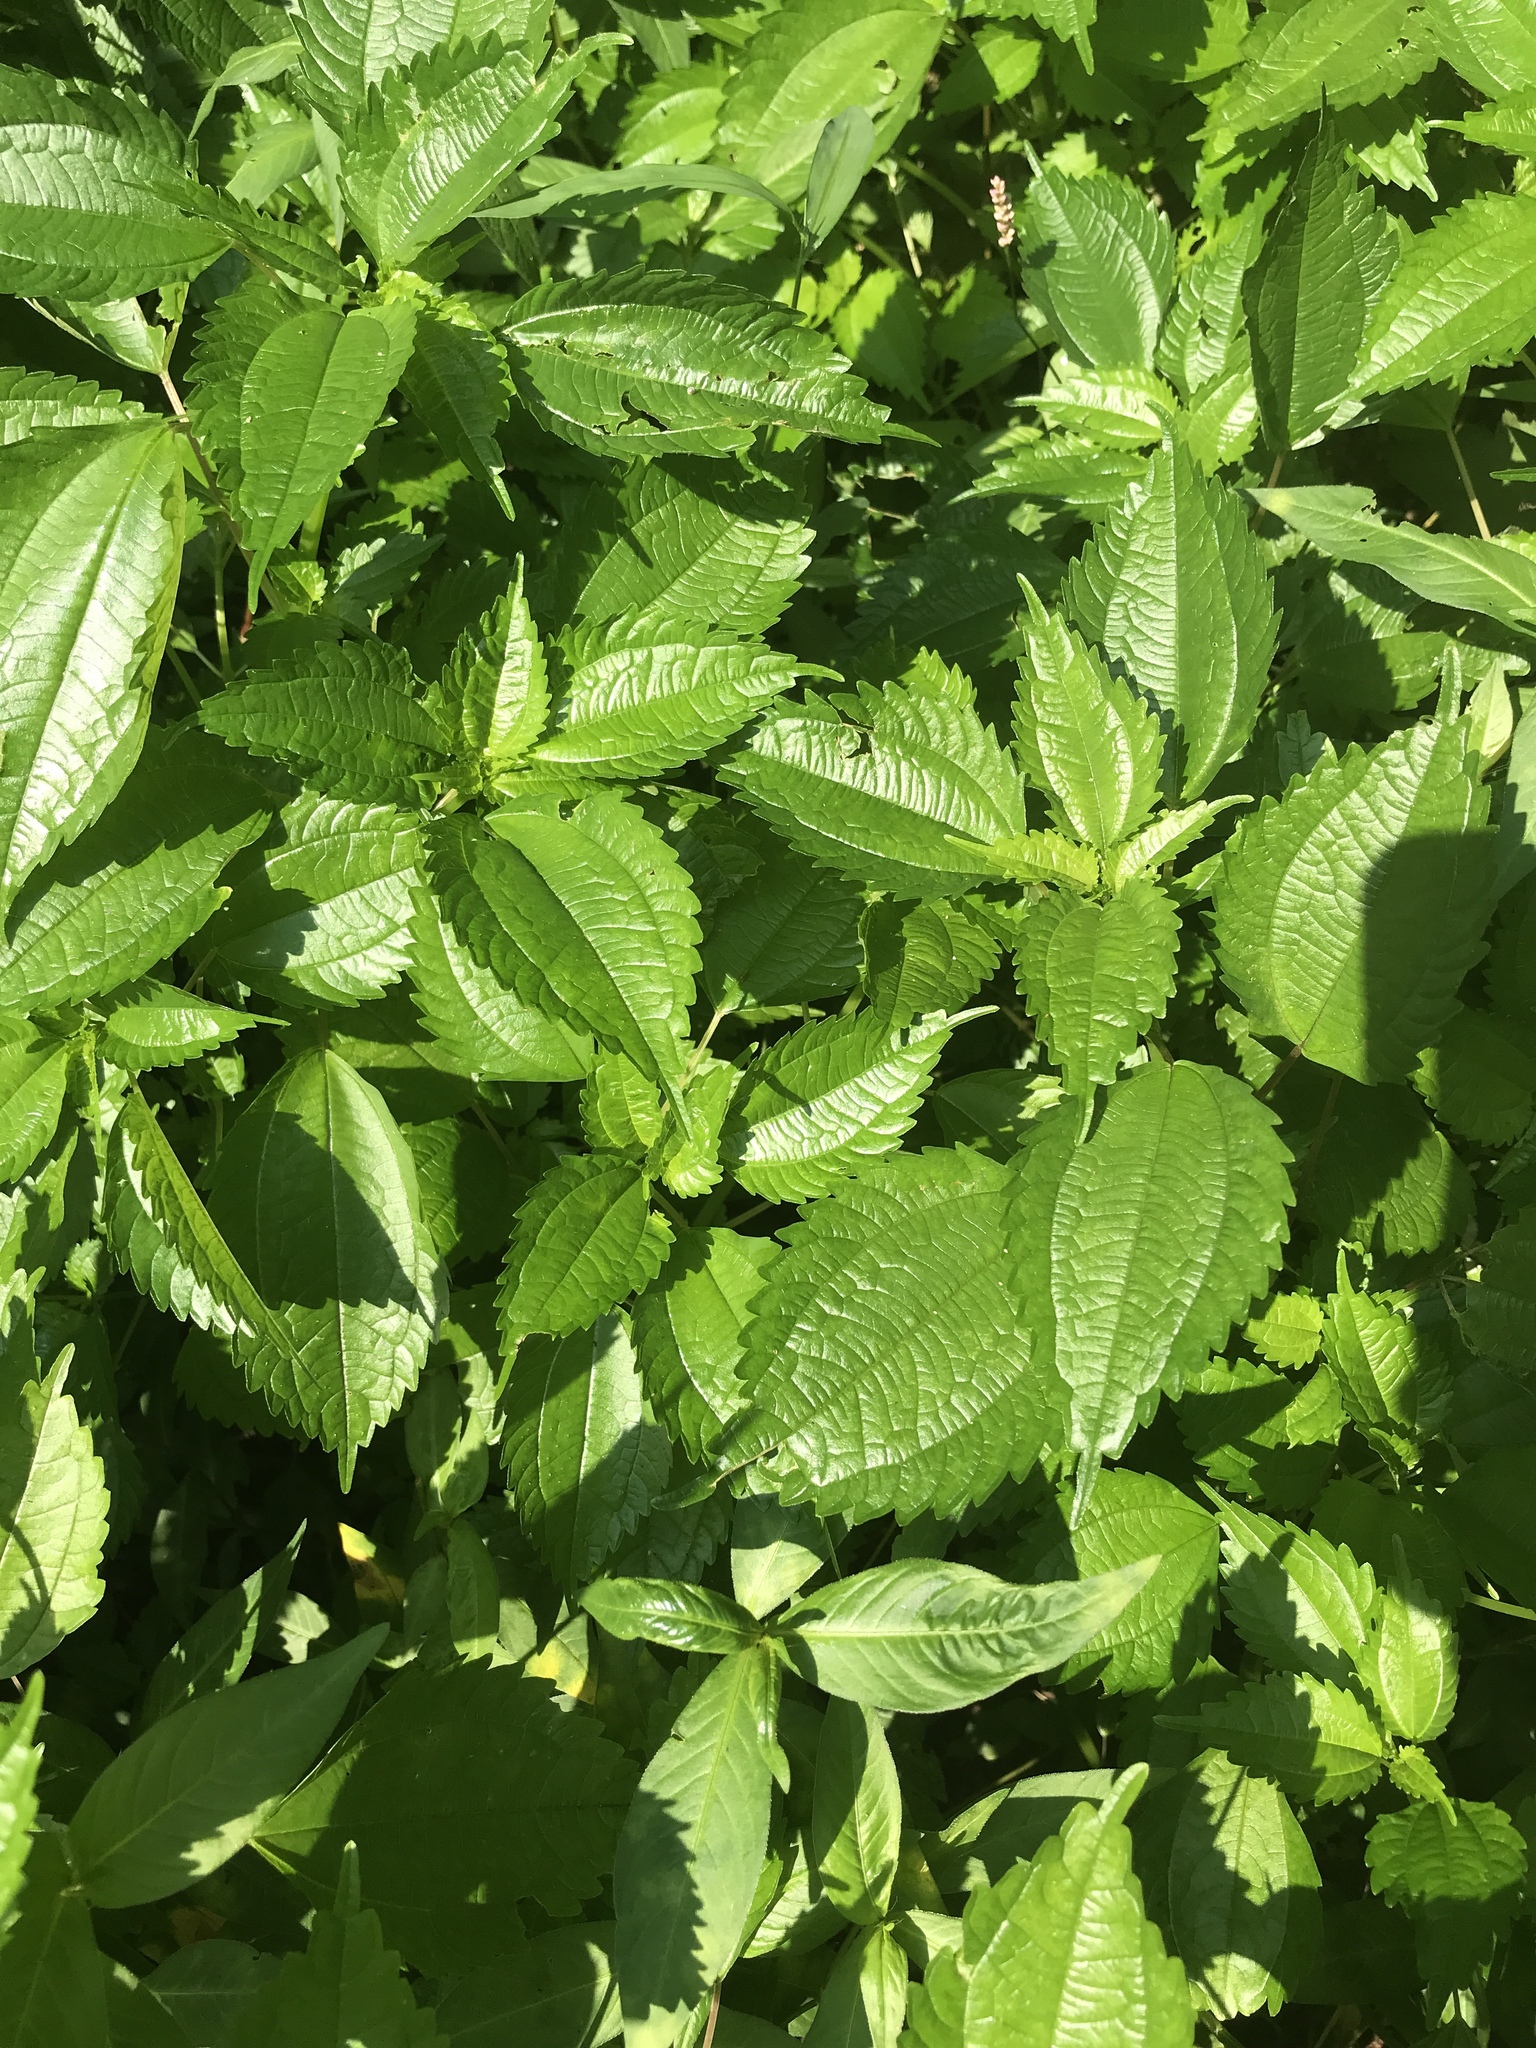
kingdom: Plantae
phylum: Tracheophyta
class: Magnoliopsida
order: Rosales
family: Urticaceae
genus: Pilea
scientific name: Pilea pumila
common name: Clearweed
